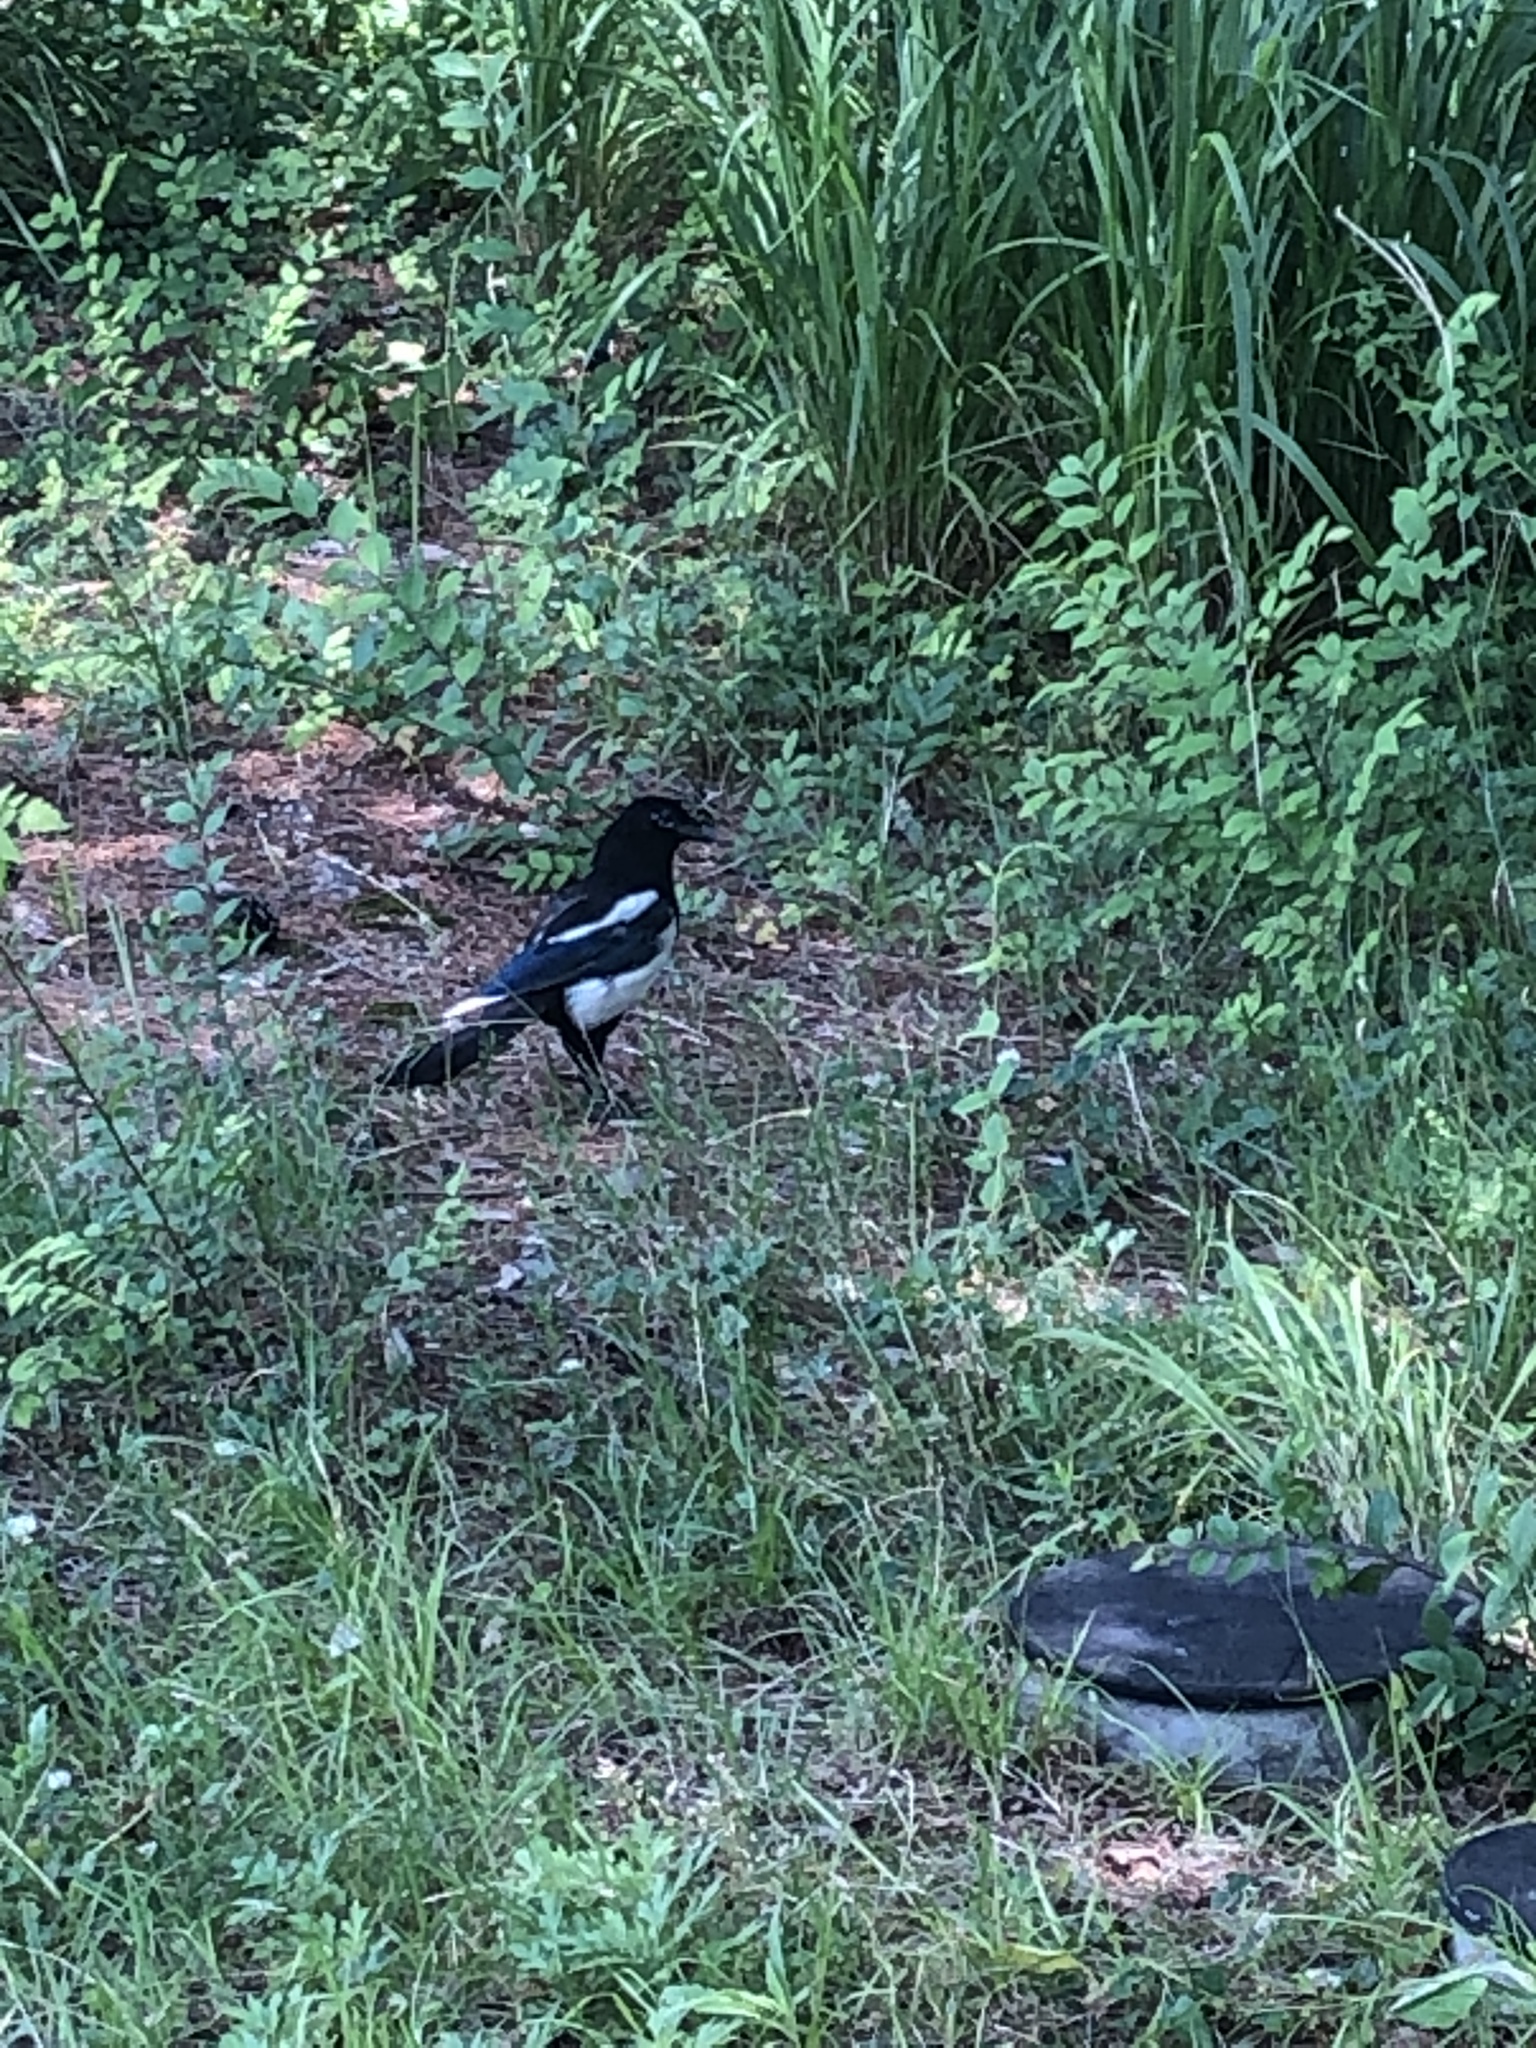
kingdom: Animalia
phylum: Chordata
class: Aves
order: Passeriformes
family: Corvidae
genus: Pica
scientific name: Pica serica
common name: Oriental magpie
